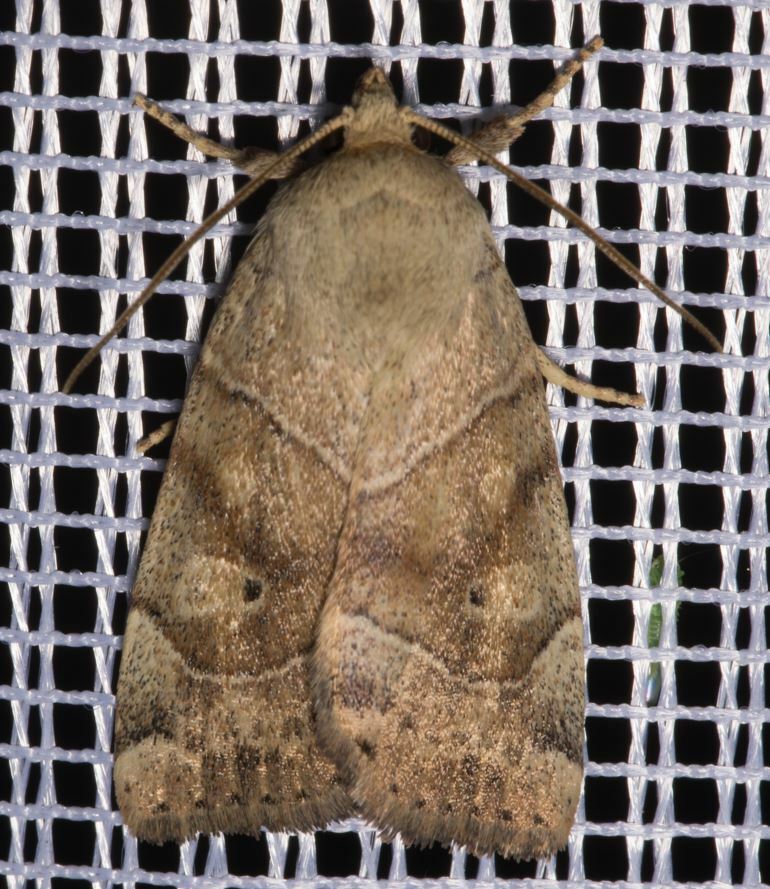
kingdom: Animalia
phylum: Arthropoda
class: Insecta
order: Lepidoptera
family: Noctuidae
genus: Cosmia
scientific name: Cosmia trapezina
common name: Dun-bar
